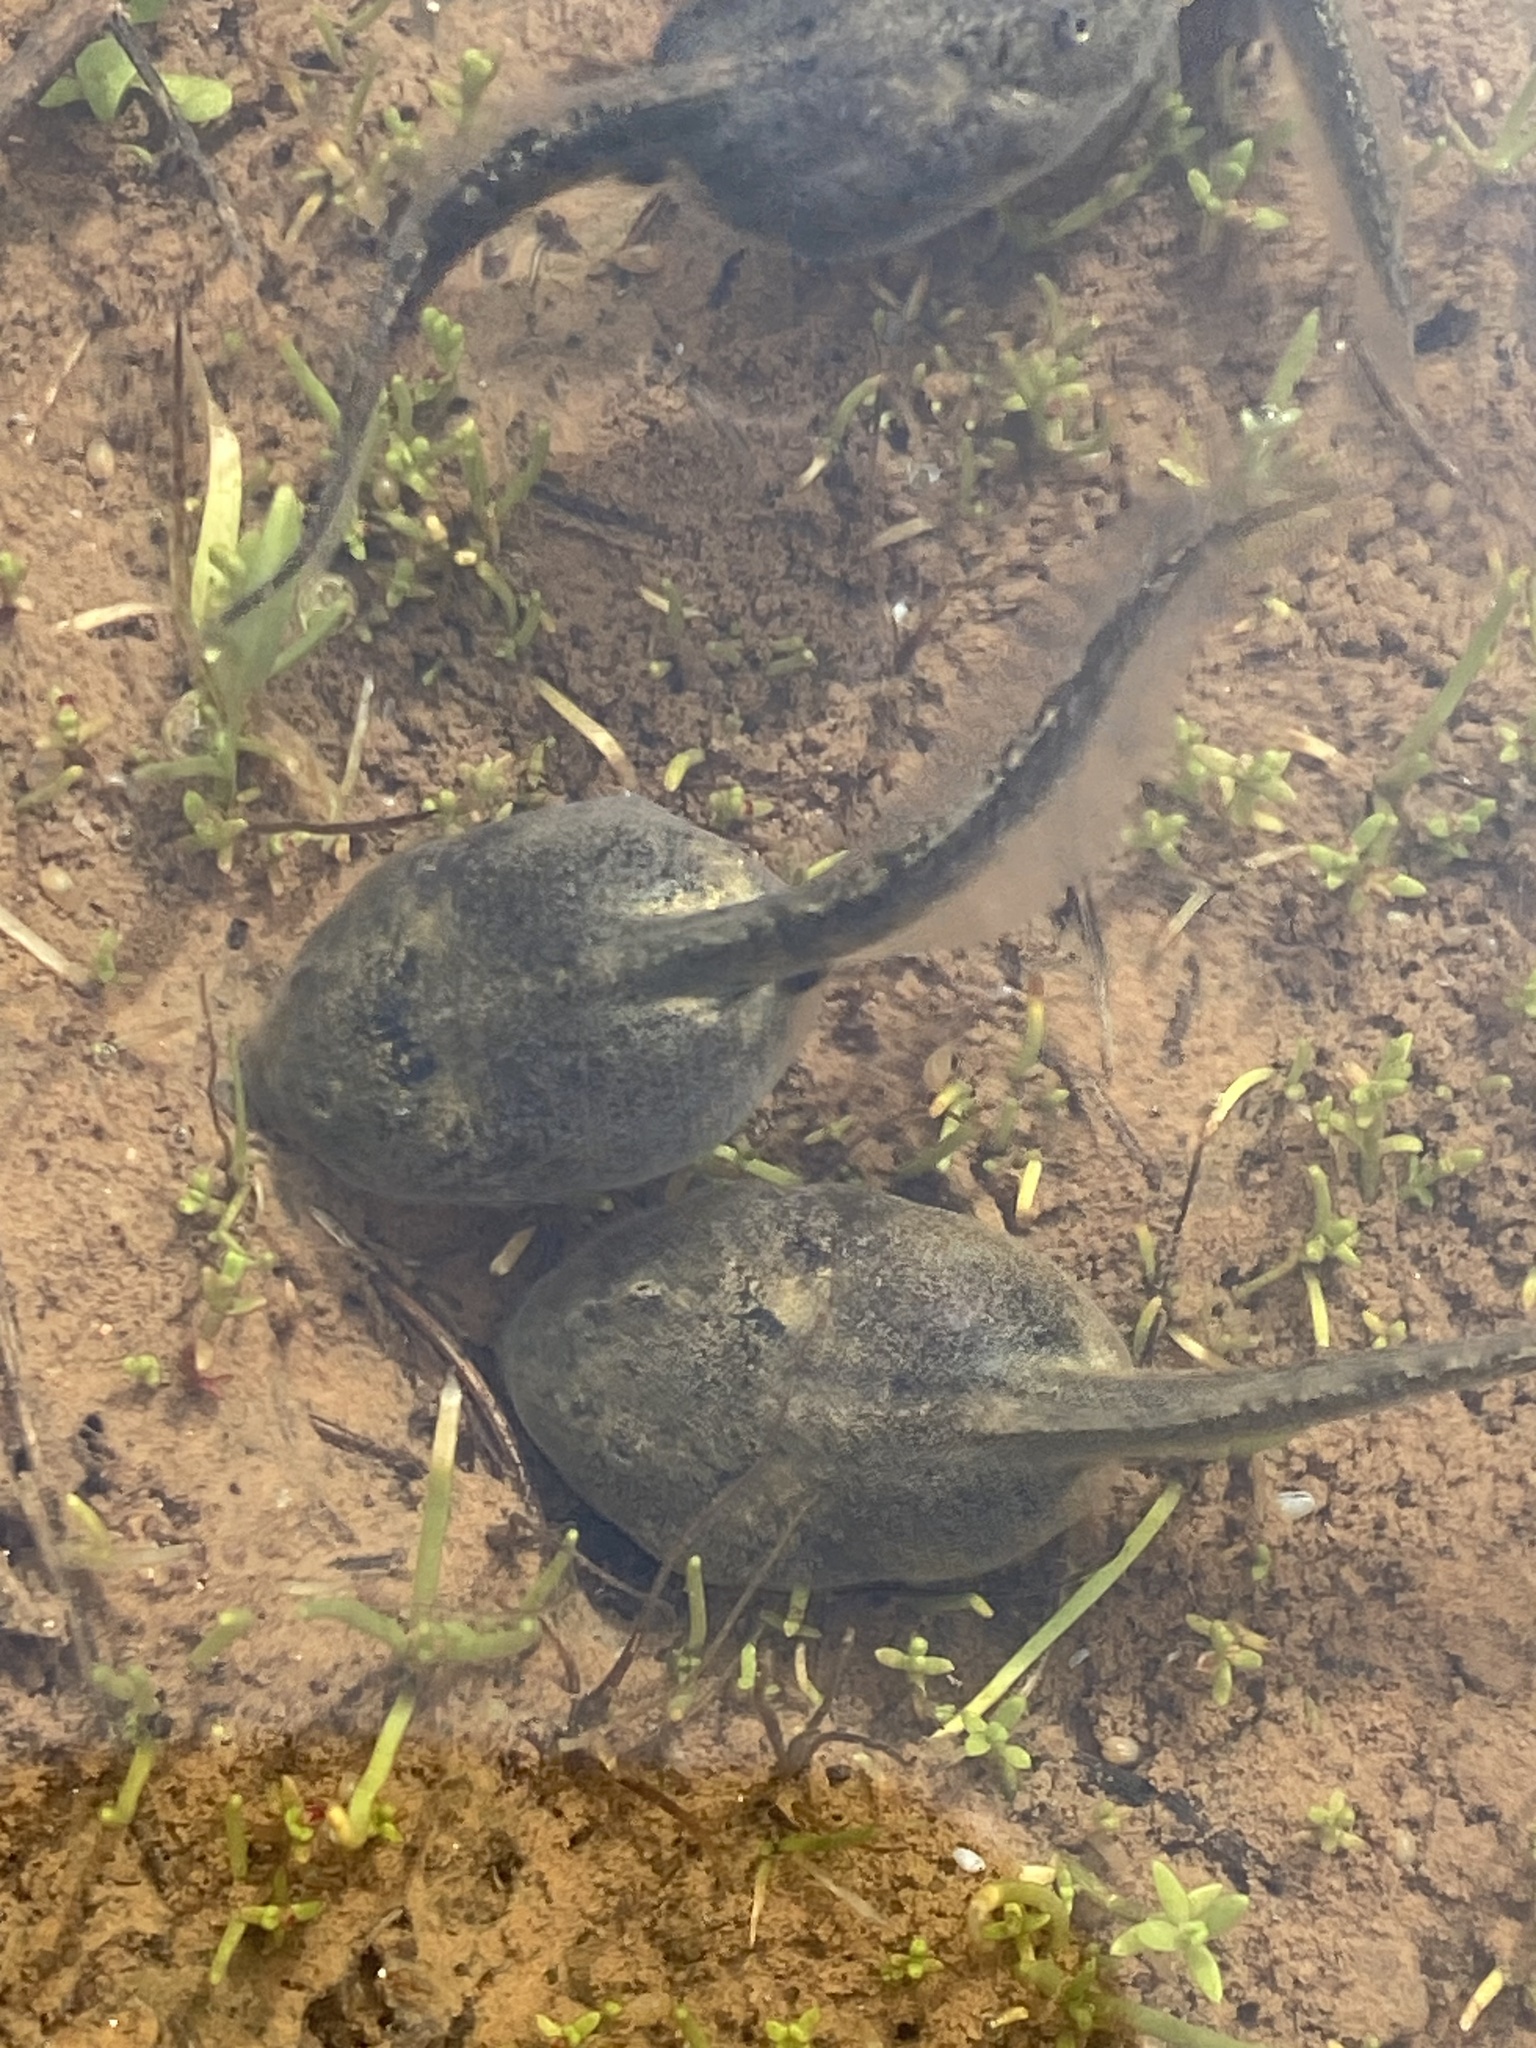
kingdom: Animalia
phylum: Chordata
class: Amphibia
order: Anura
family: Scaphiopodidae
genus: Spea
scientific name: Spea hammondii
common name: Western spadefoot toad
